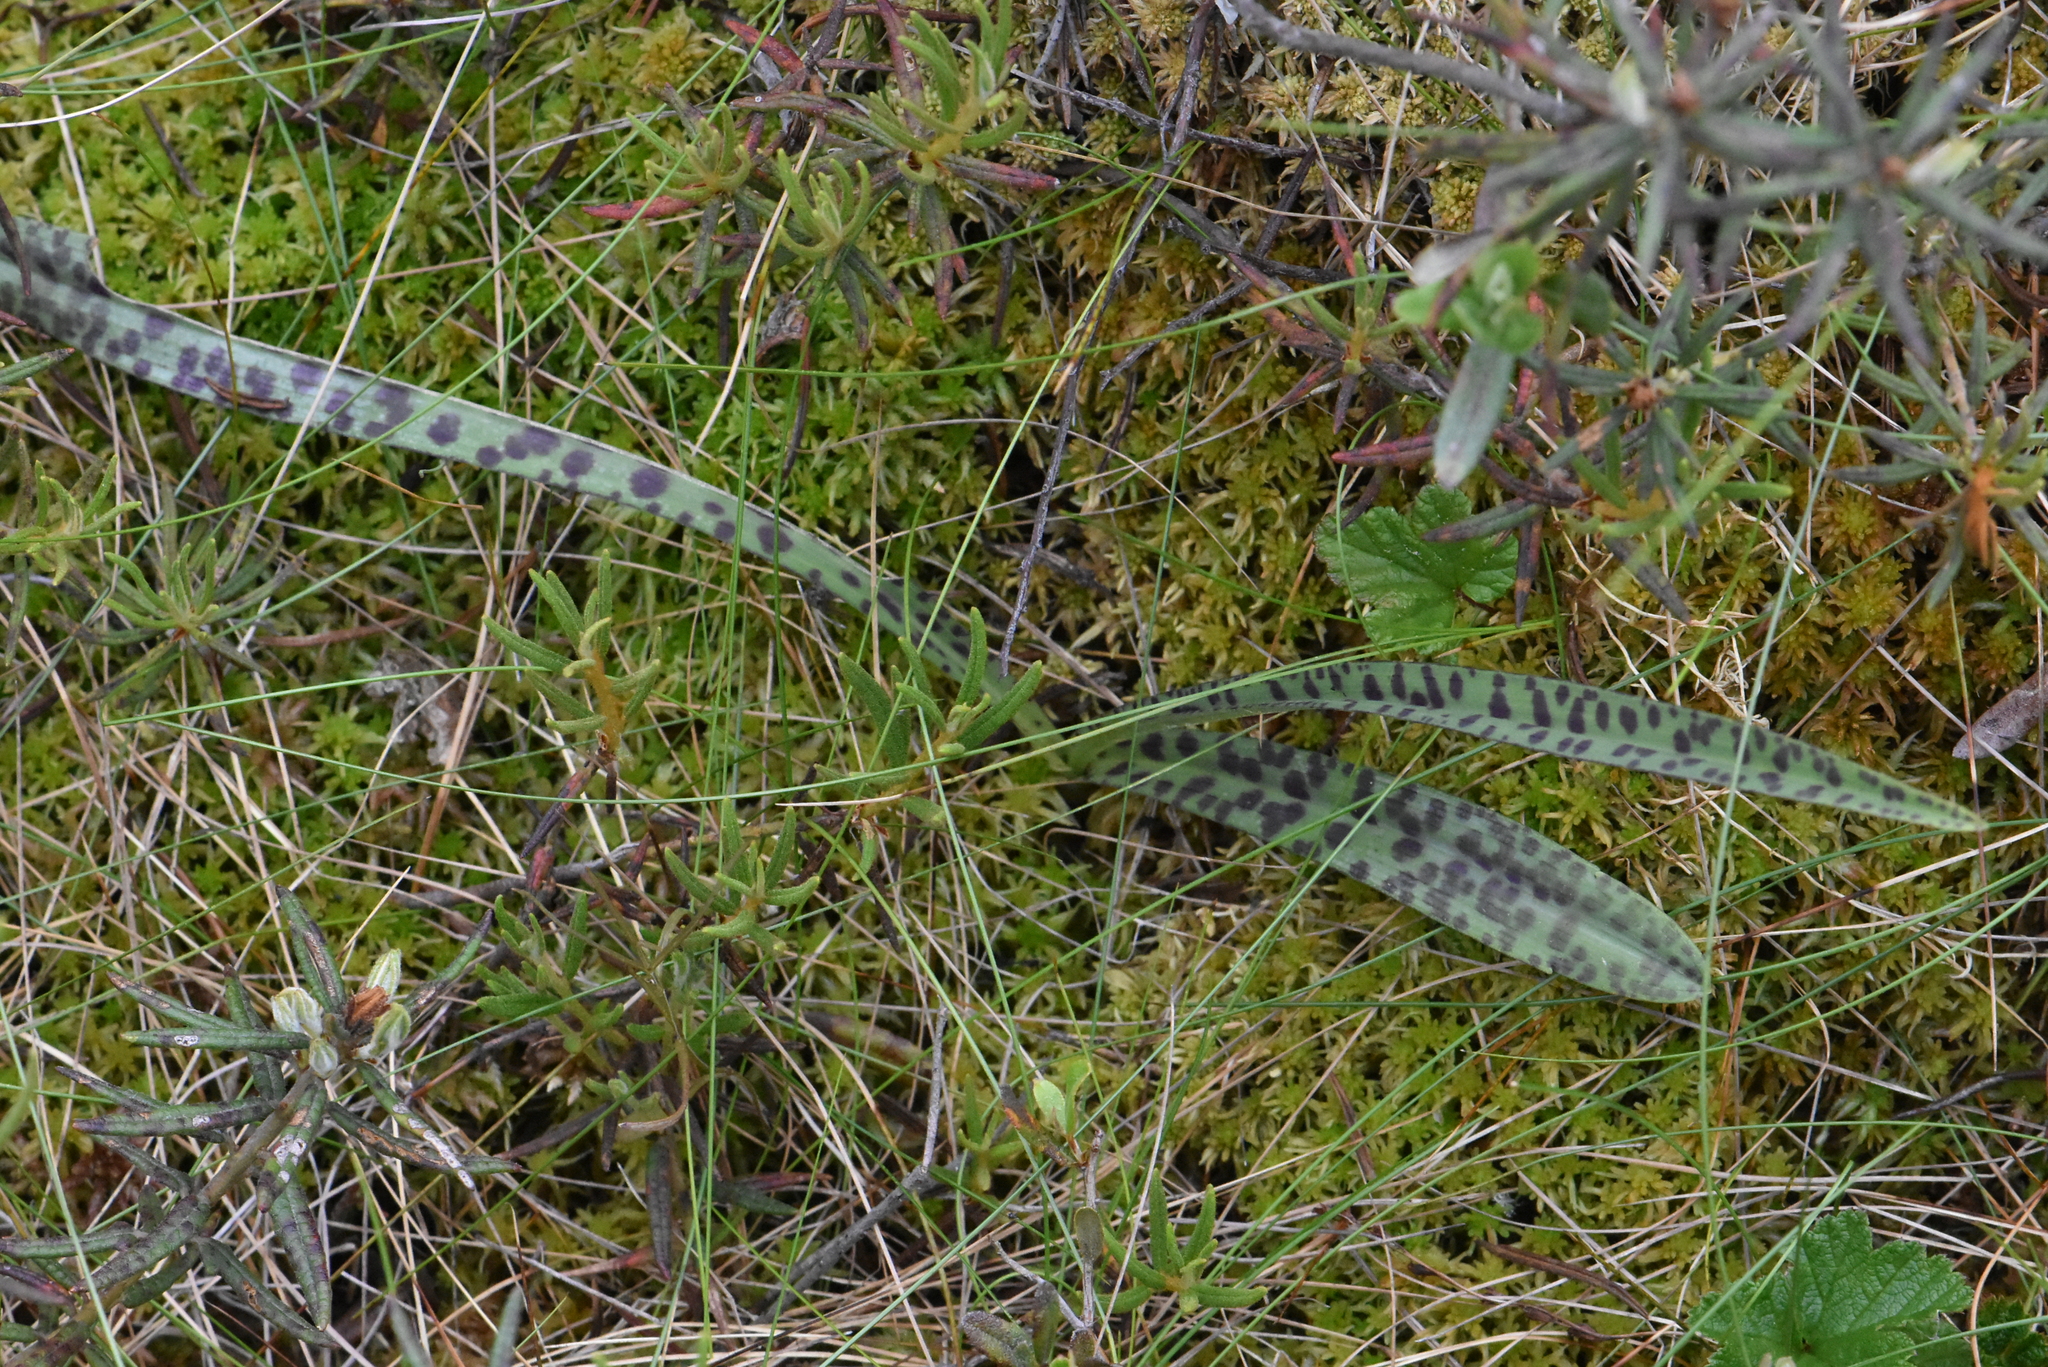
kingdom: Plantae
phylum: Tracheophyta
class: Liliopsida
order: Asparagales
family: Orchidaceae
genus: Dactylorhiza
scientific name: Dactylorhiza maculata
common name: Heath spotted-orchid
